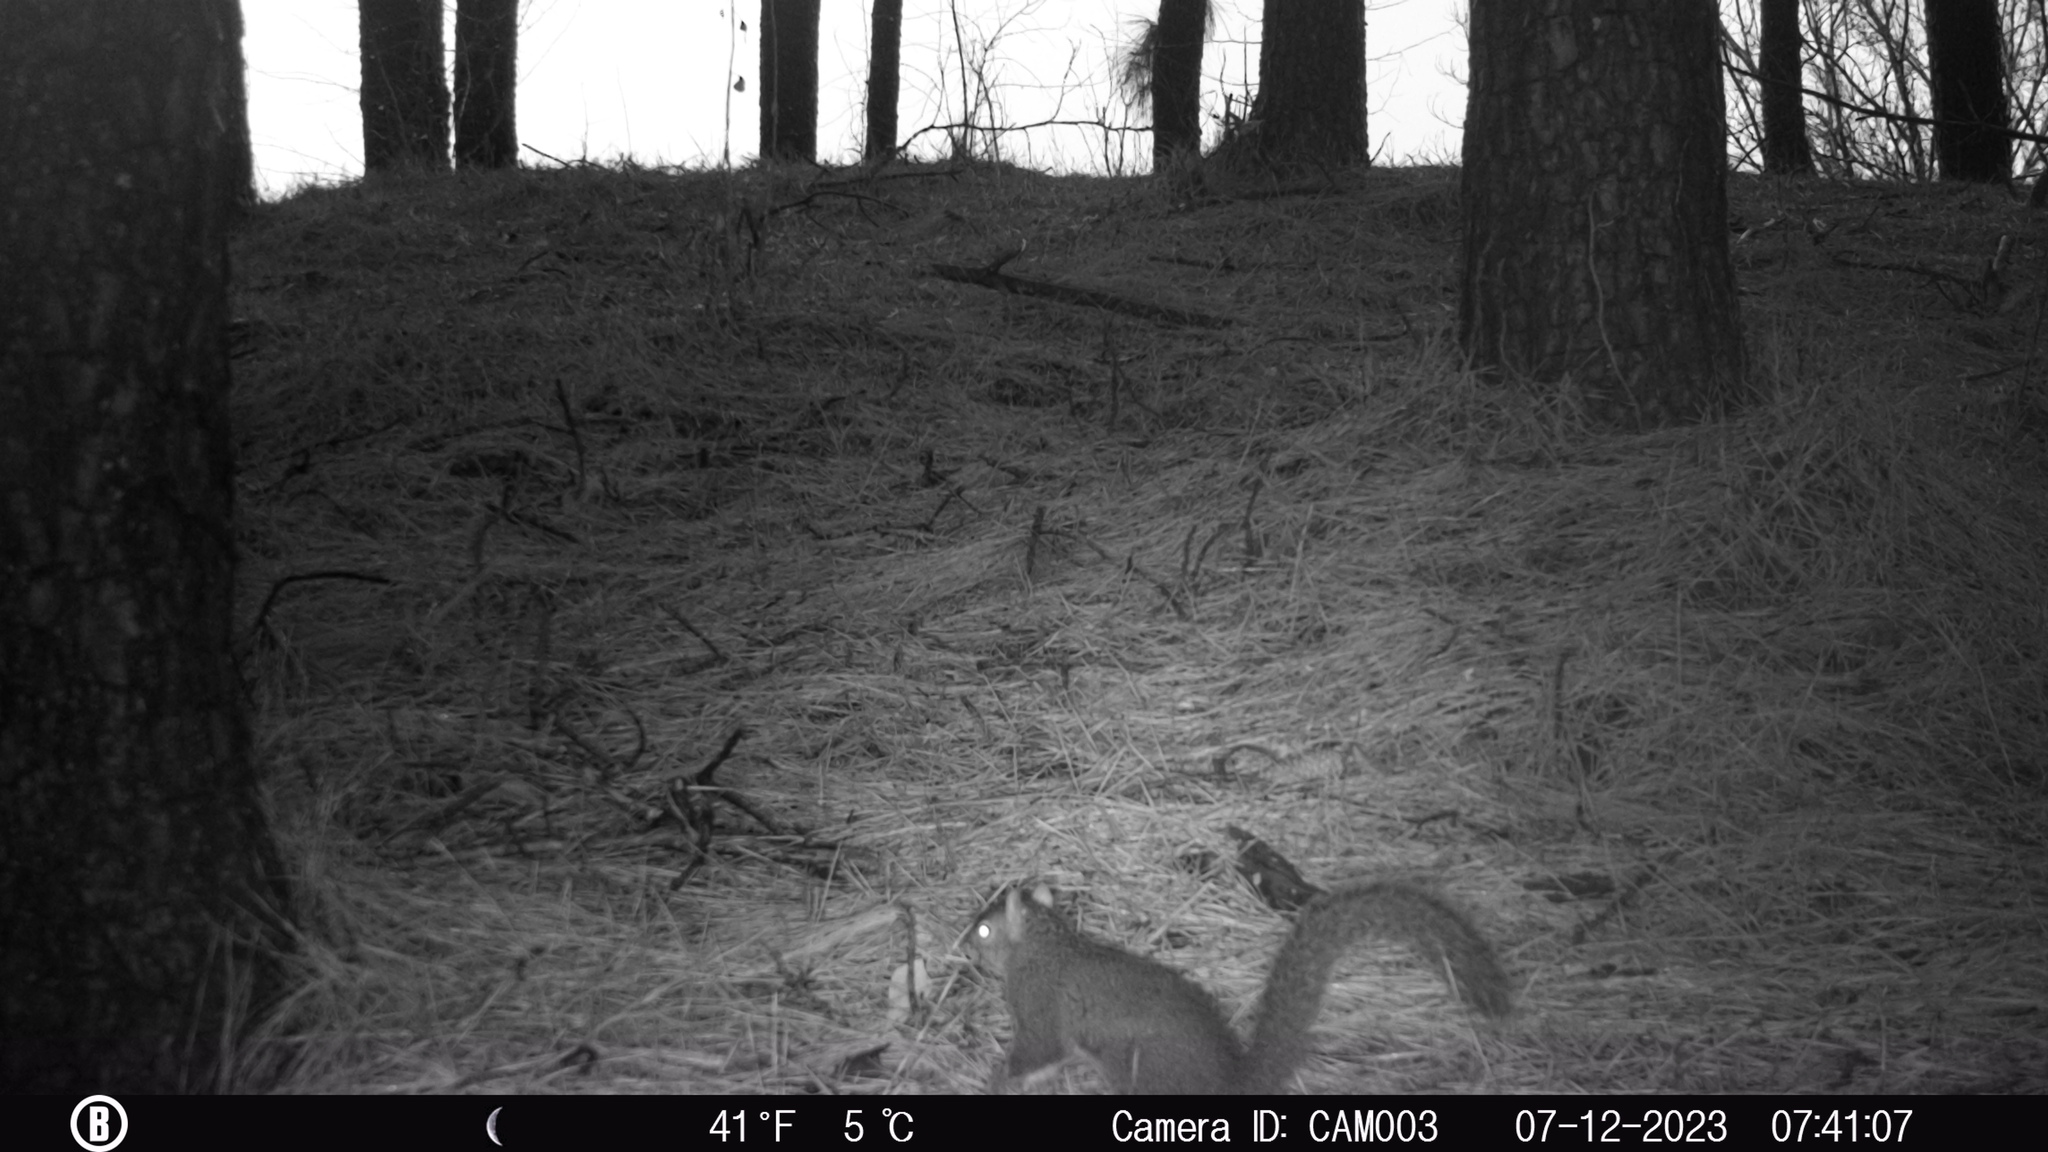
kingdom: Animalia
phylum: Chordata
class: Mammalia
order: Rodentia
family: Sciuridae
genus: Sciurus
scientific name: Sciurus carolinensis
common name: Eastern gray squirrel
